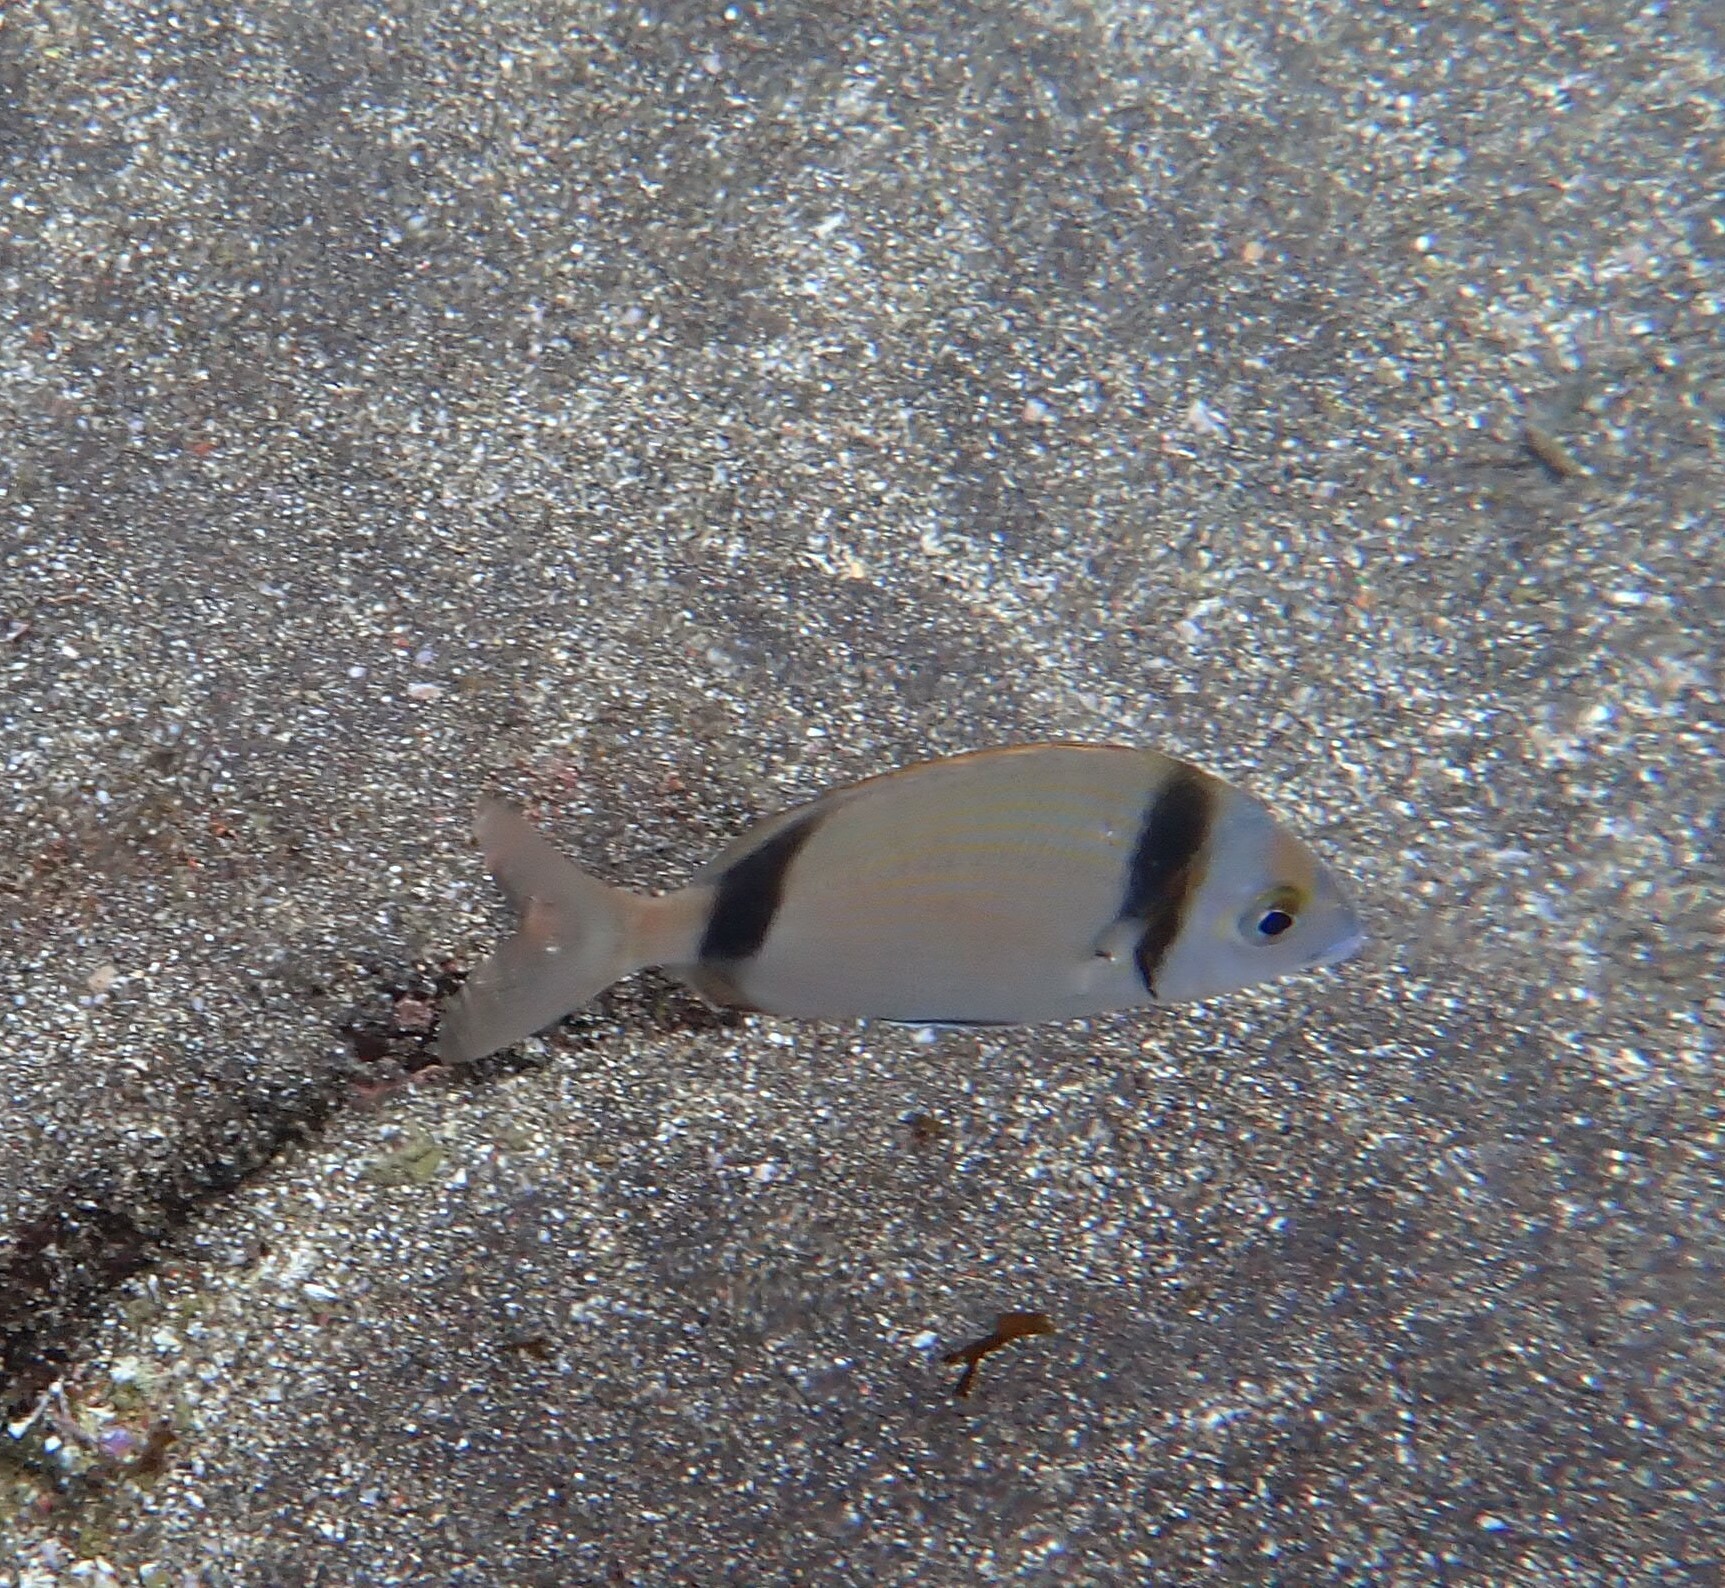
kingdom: Animalia
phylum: Chordata
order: Perciformes
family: Sparidae
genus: Diplodus
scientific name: Diplodus vulgaris
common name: Common two-banded seabream
